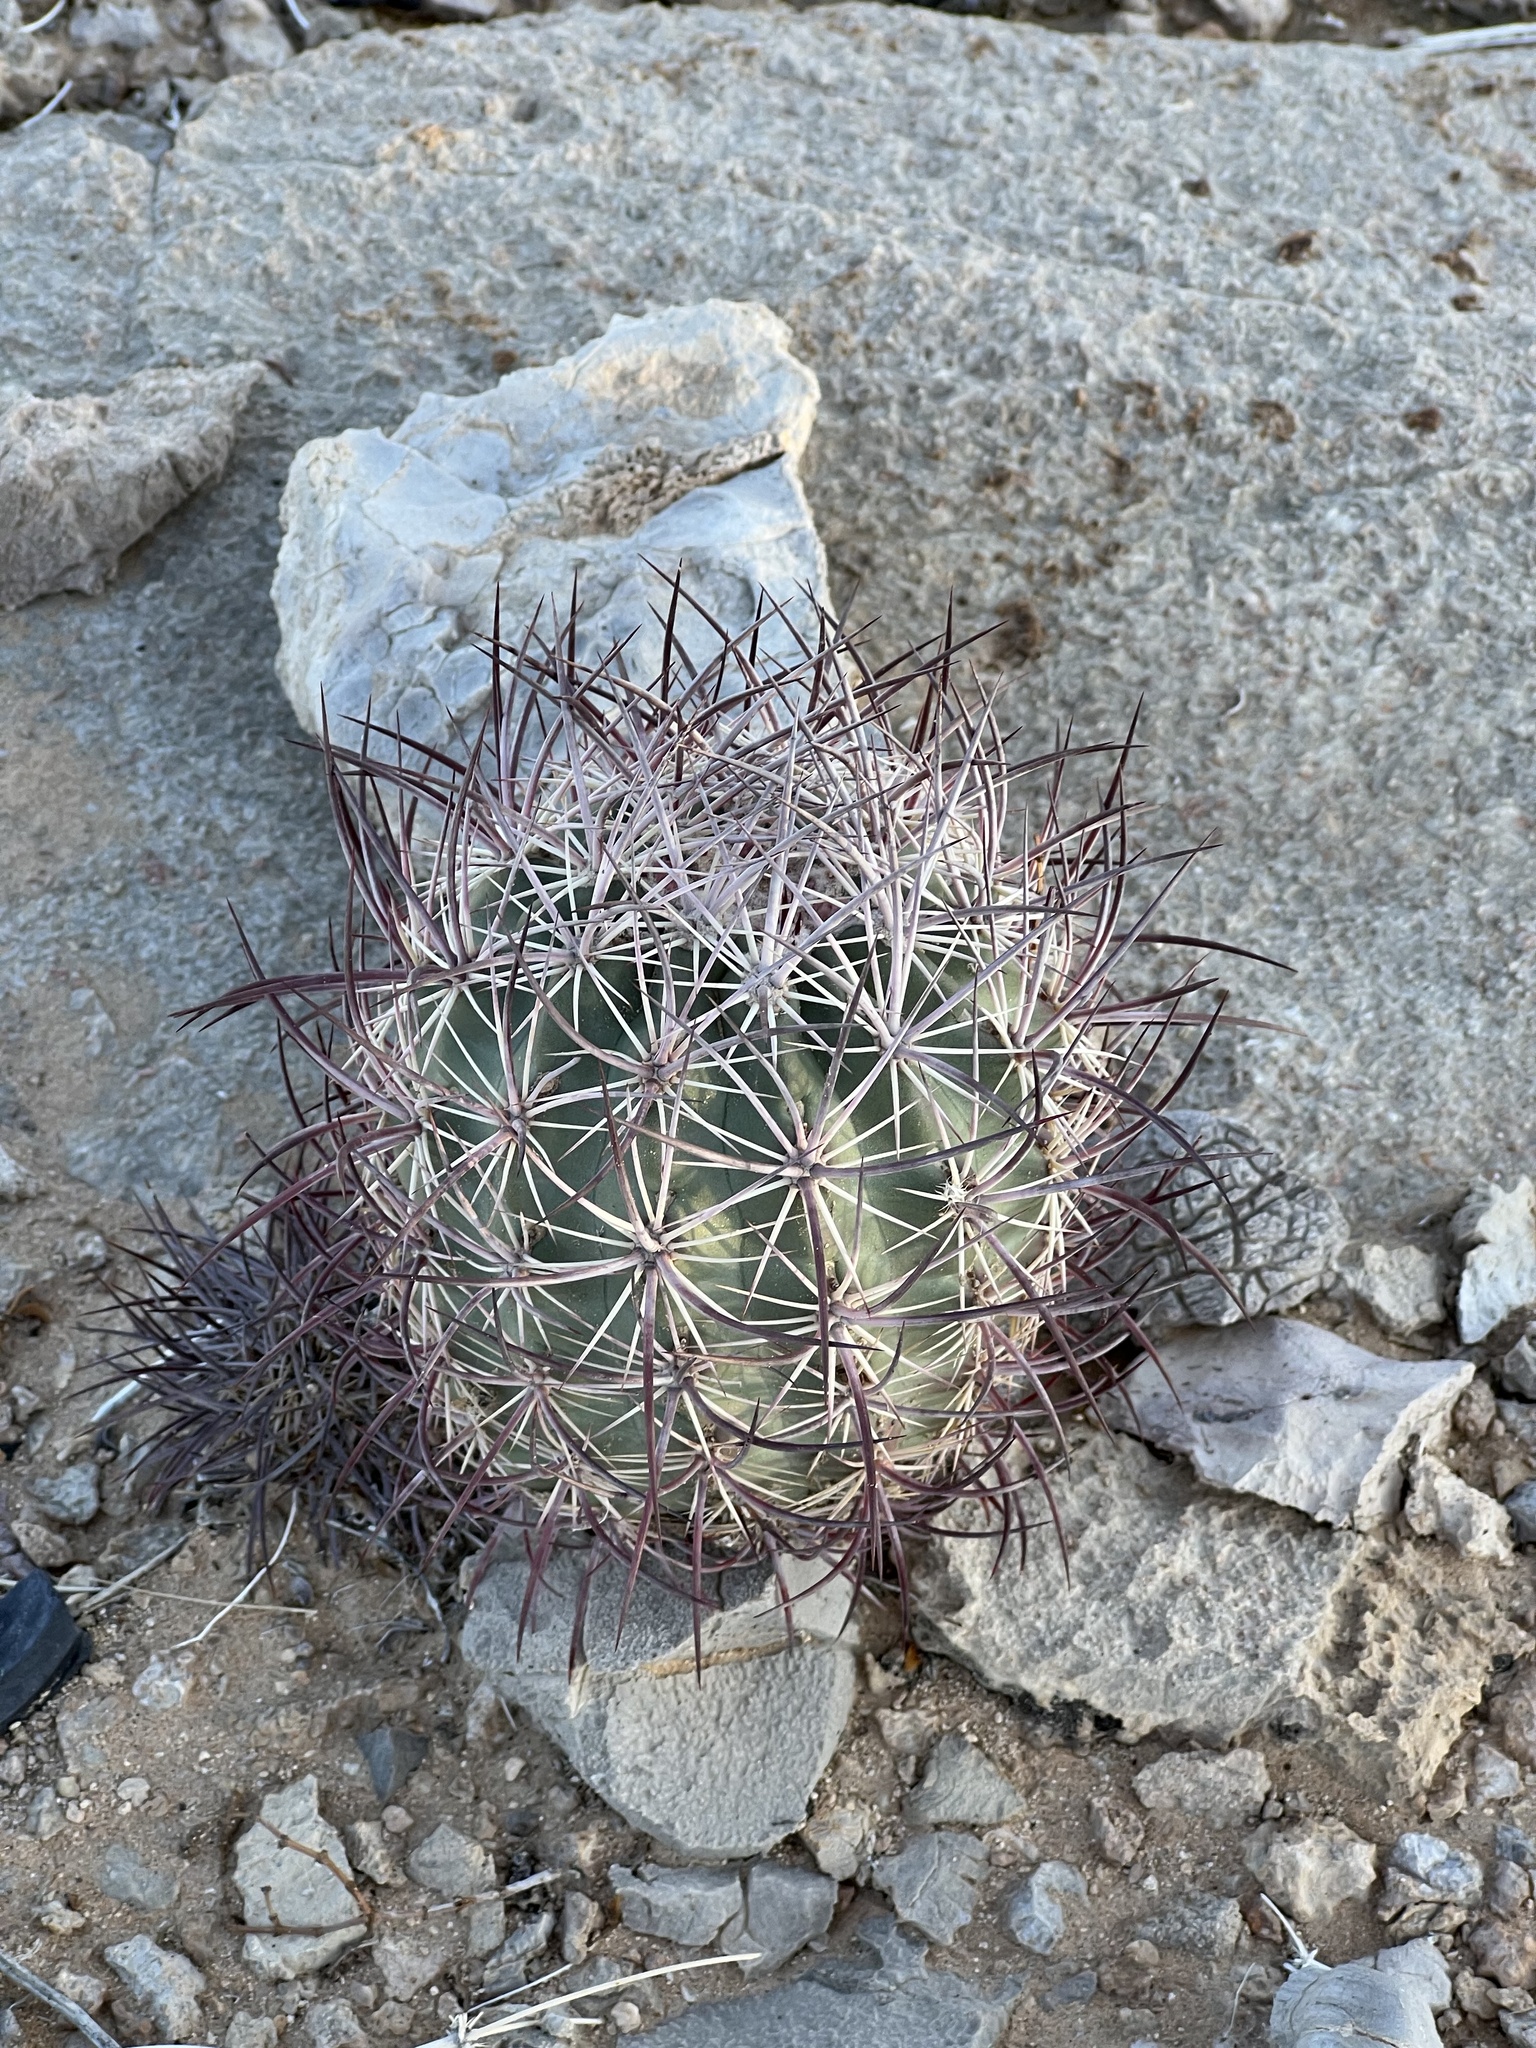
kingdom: Plantae
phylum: Tracheophyta
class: Magnoliopsida
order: Caryophyllales
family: Cactaceae
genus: Sclerocactus
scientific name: Sclerocactus johnsonii
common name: Eight-spine fishhook cactus
